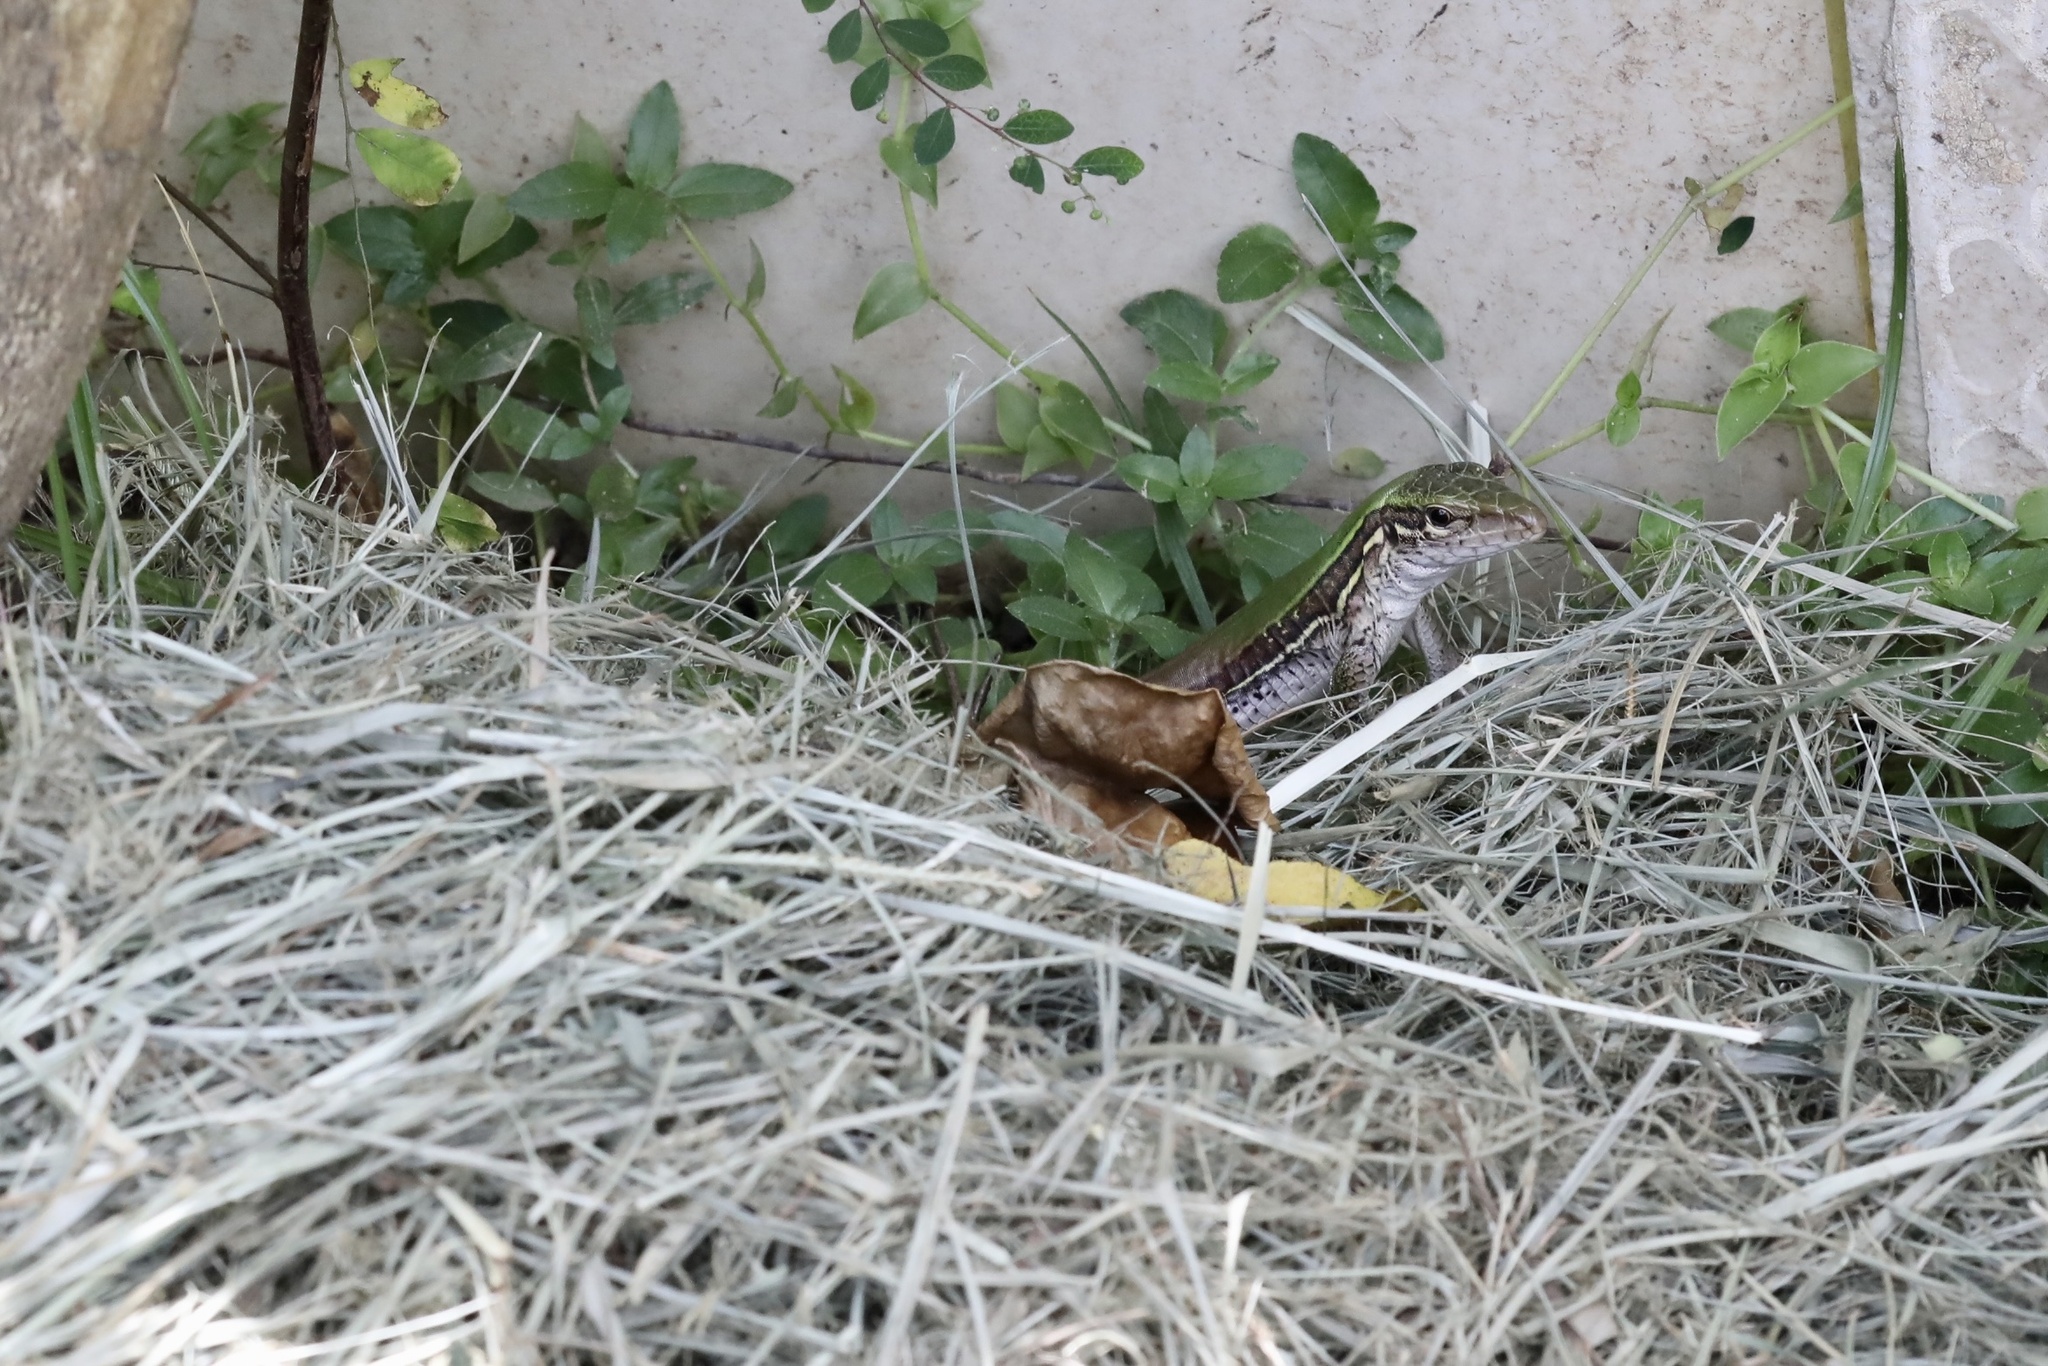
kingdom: Animalia
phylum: Chordata
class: Squamata
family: Teiidae
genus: Ameiva
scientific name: Ameiva ameiva
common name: Giant ameiva
